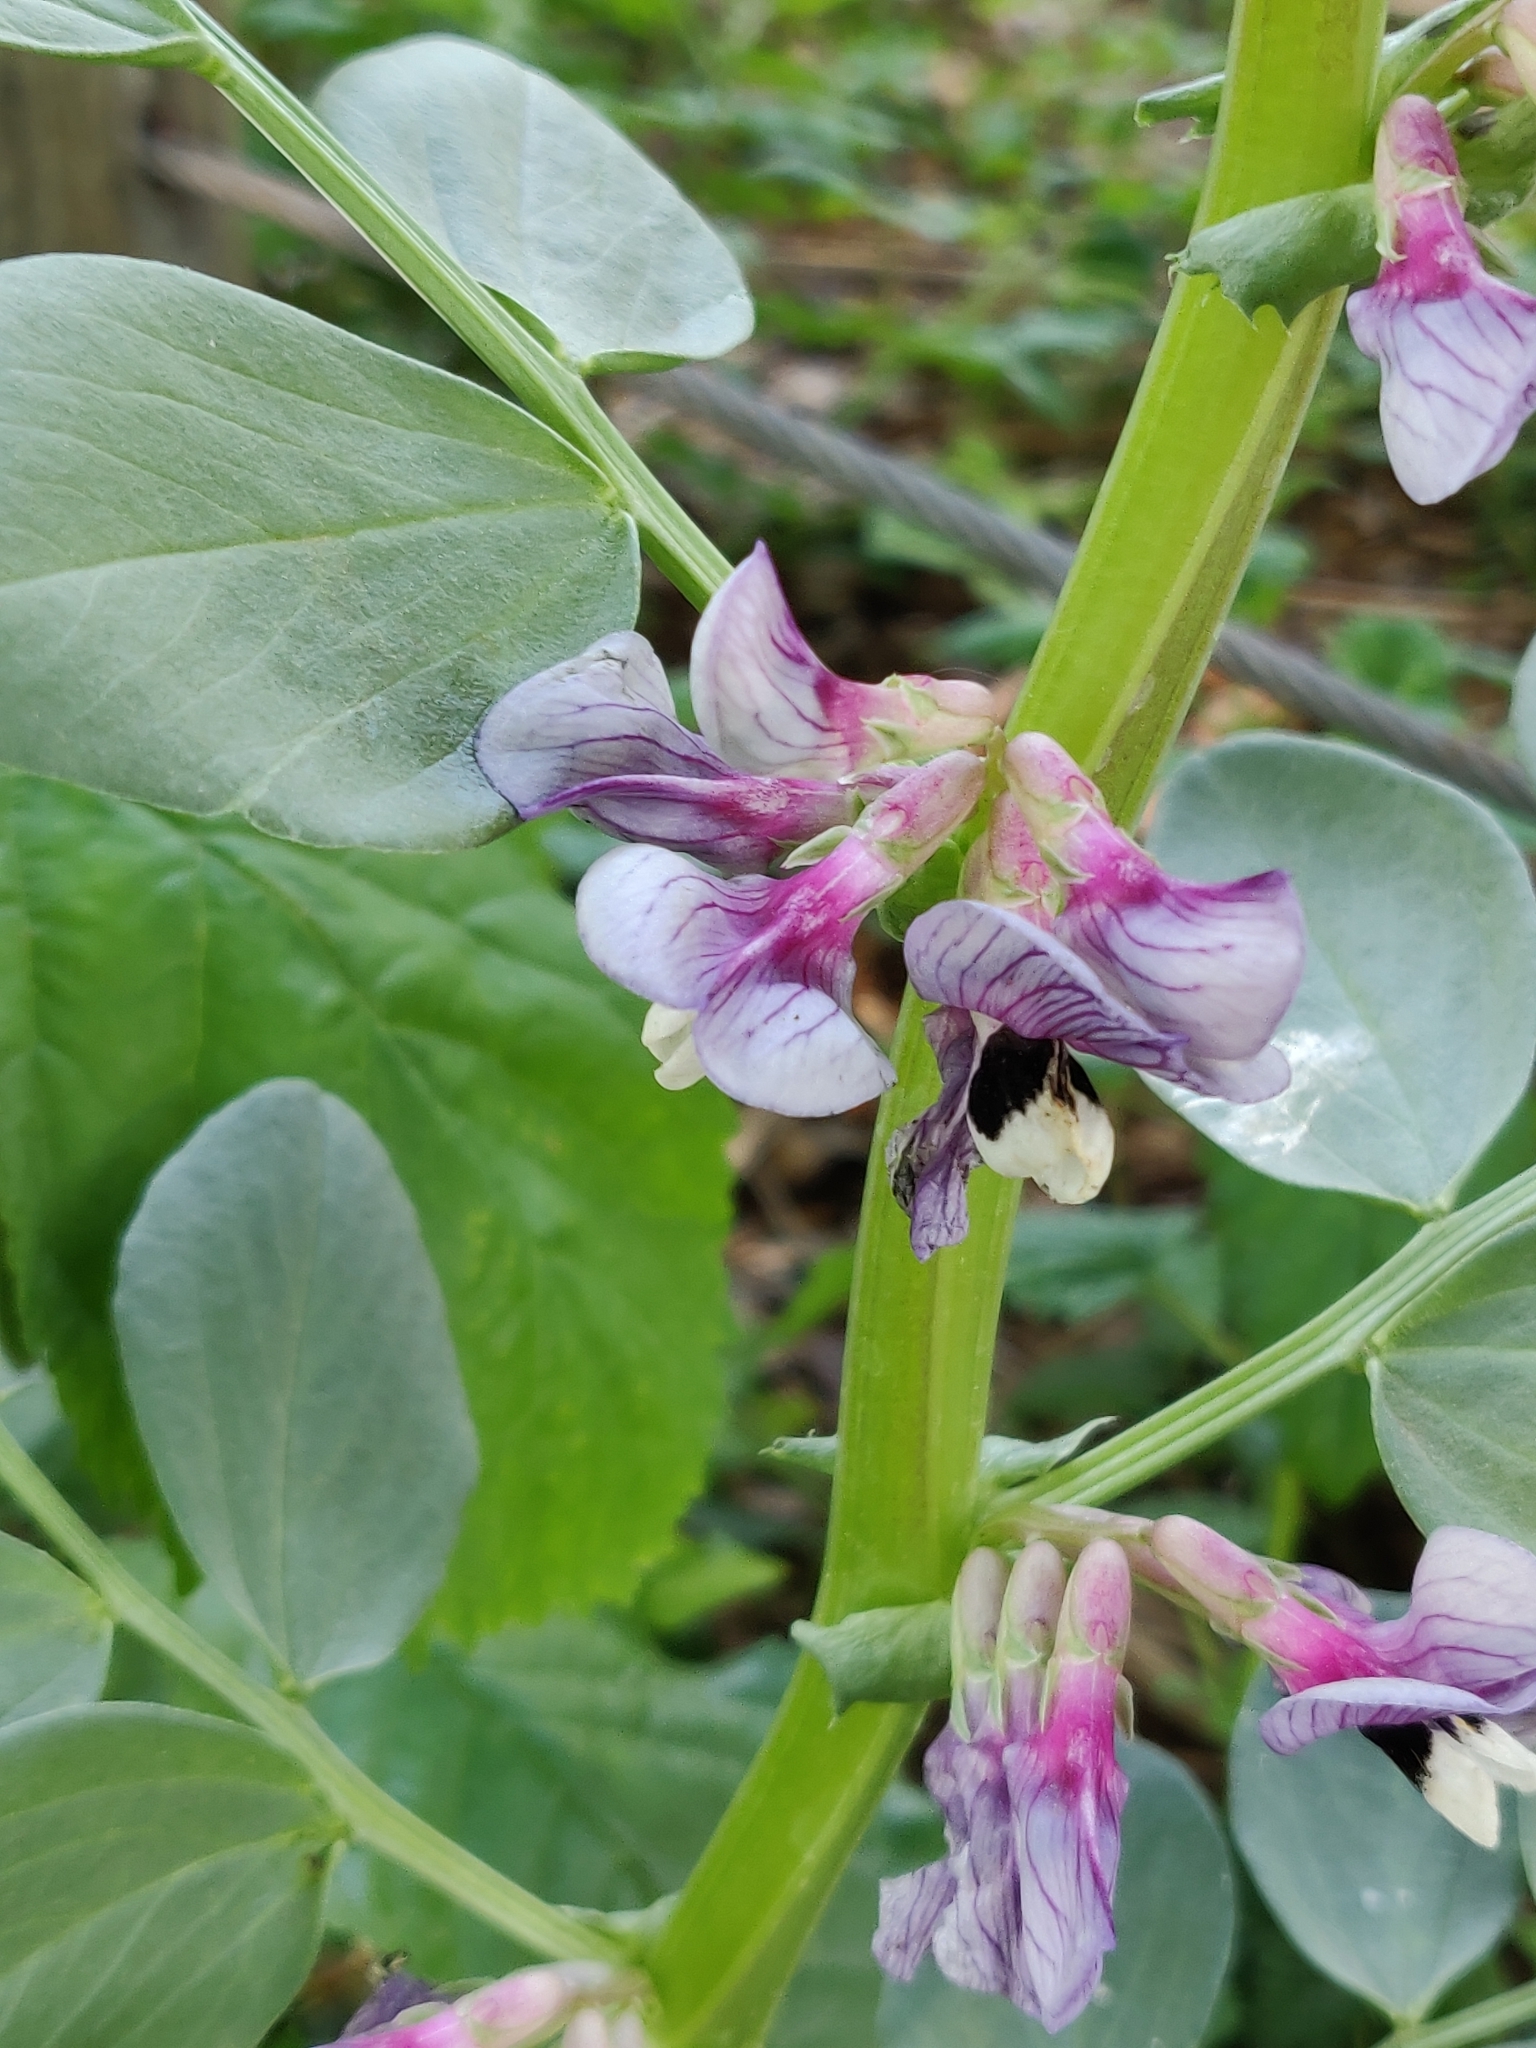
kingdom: Plantae
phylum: Tracheophyta
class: Magnoliopsida
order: Fabales
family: Fabaceae
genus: Vicia
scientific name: Vicia faba
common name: Broad bean
